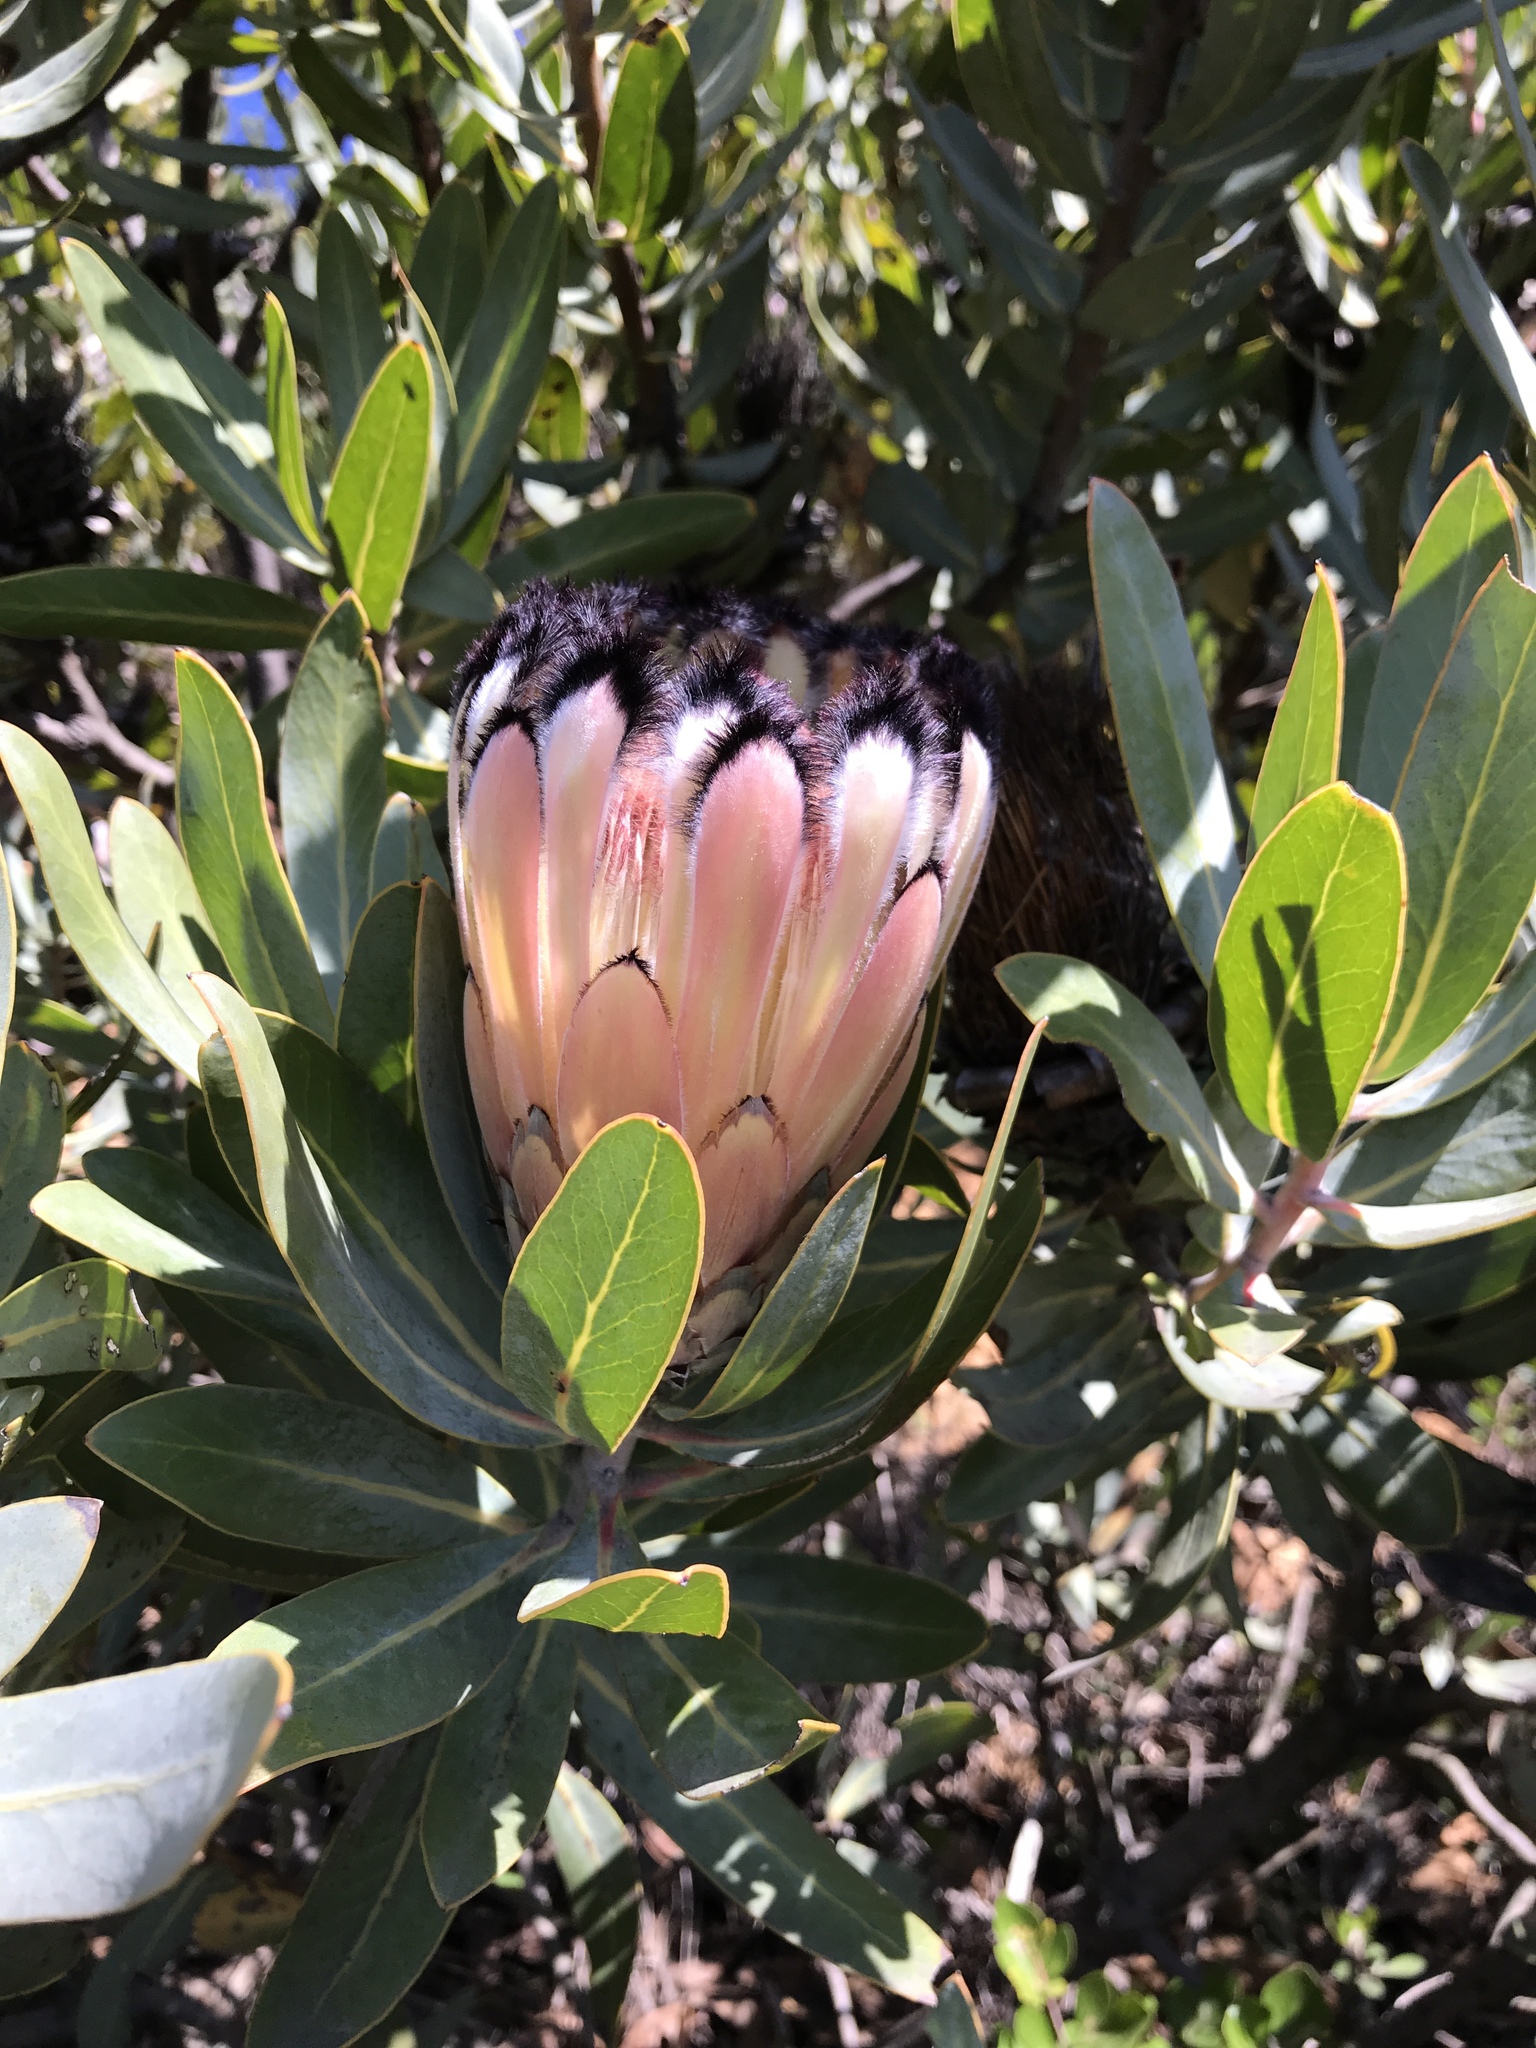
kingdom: Plantae
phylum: Tracheophyta
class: Magnoliopsida
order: Proteales
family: Proteaceae
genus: Protea
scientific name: Protea laurifolia
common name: Grey-leaf sugarbsh
